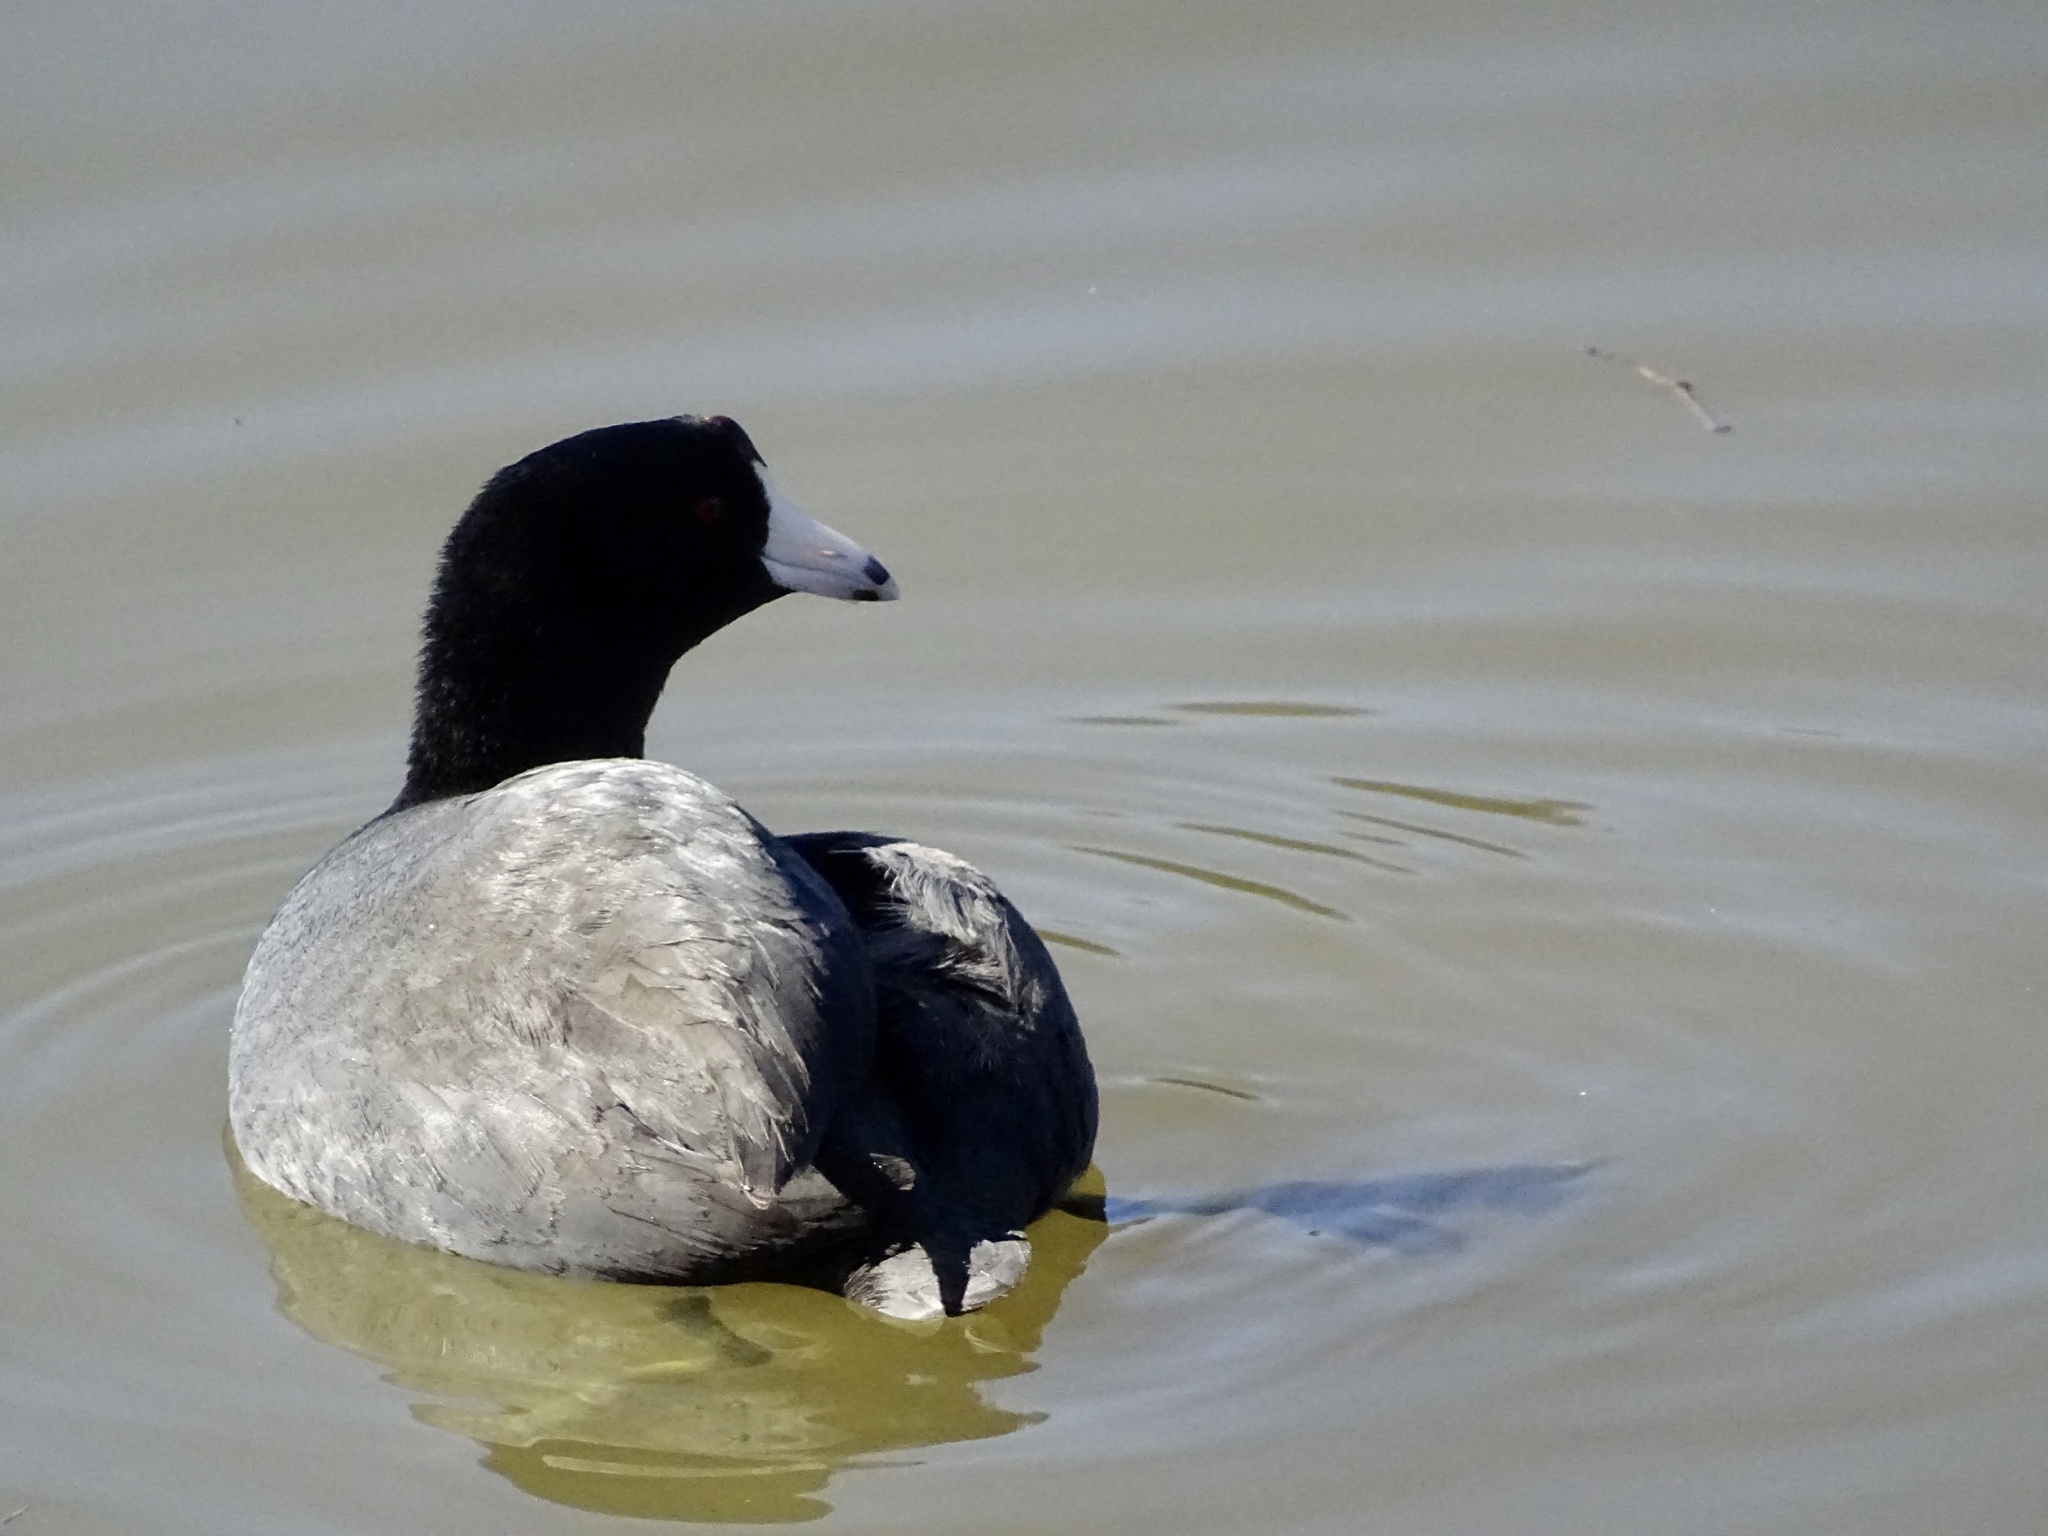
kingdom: Animalia
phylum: Chordata
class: Aves
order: Gruiformes
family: Rallidae
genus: Fulica
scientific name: Fulica americana
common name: American coot
